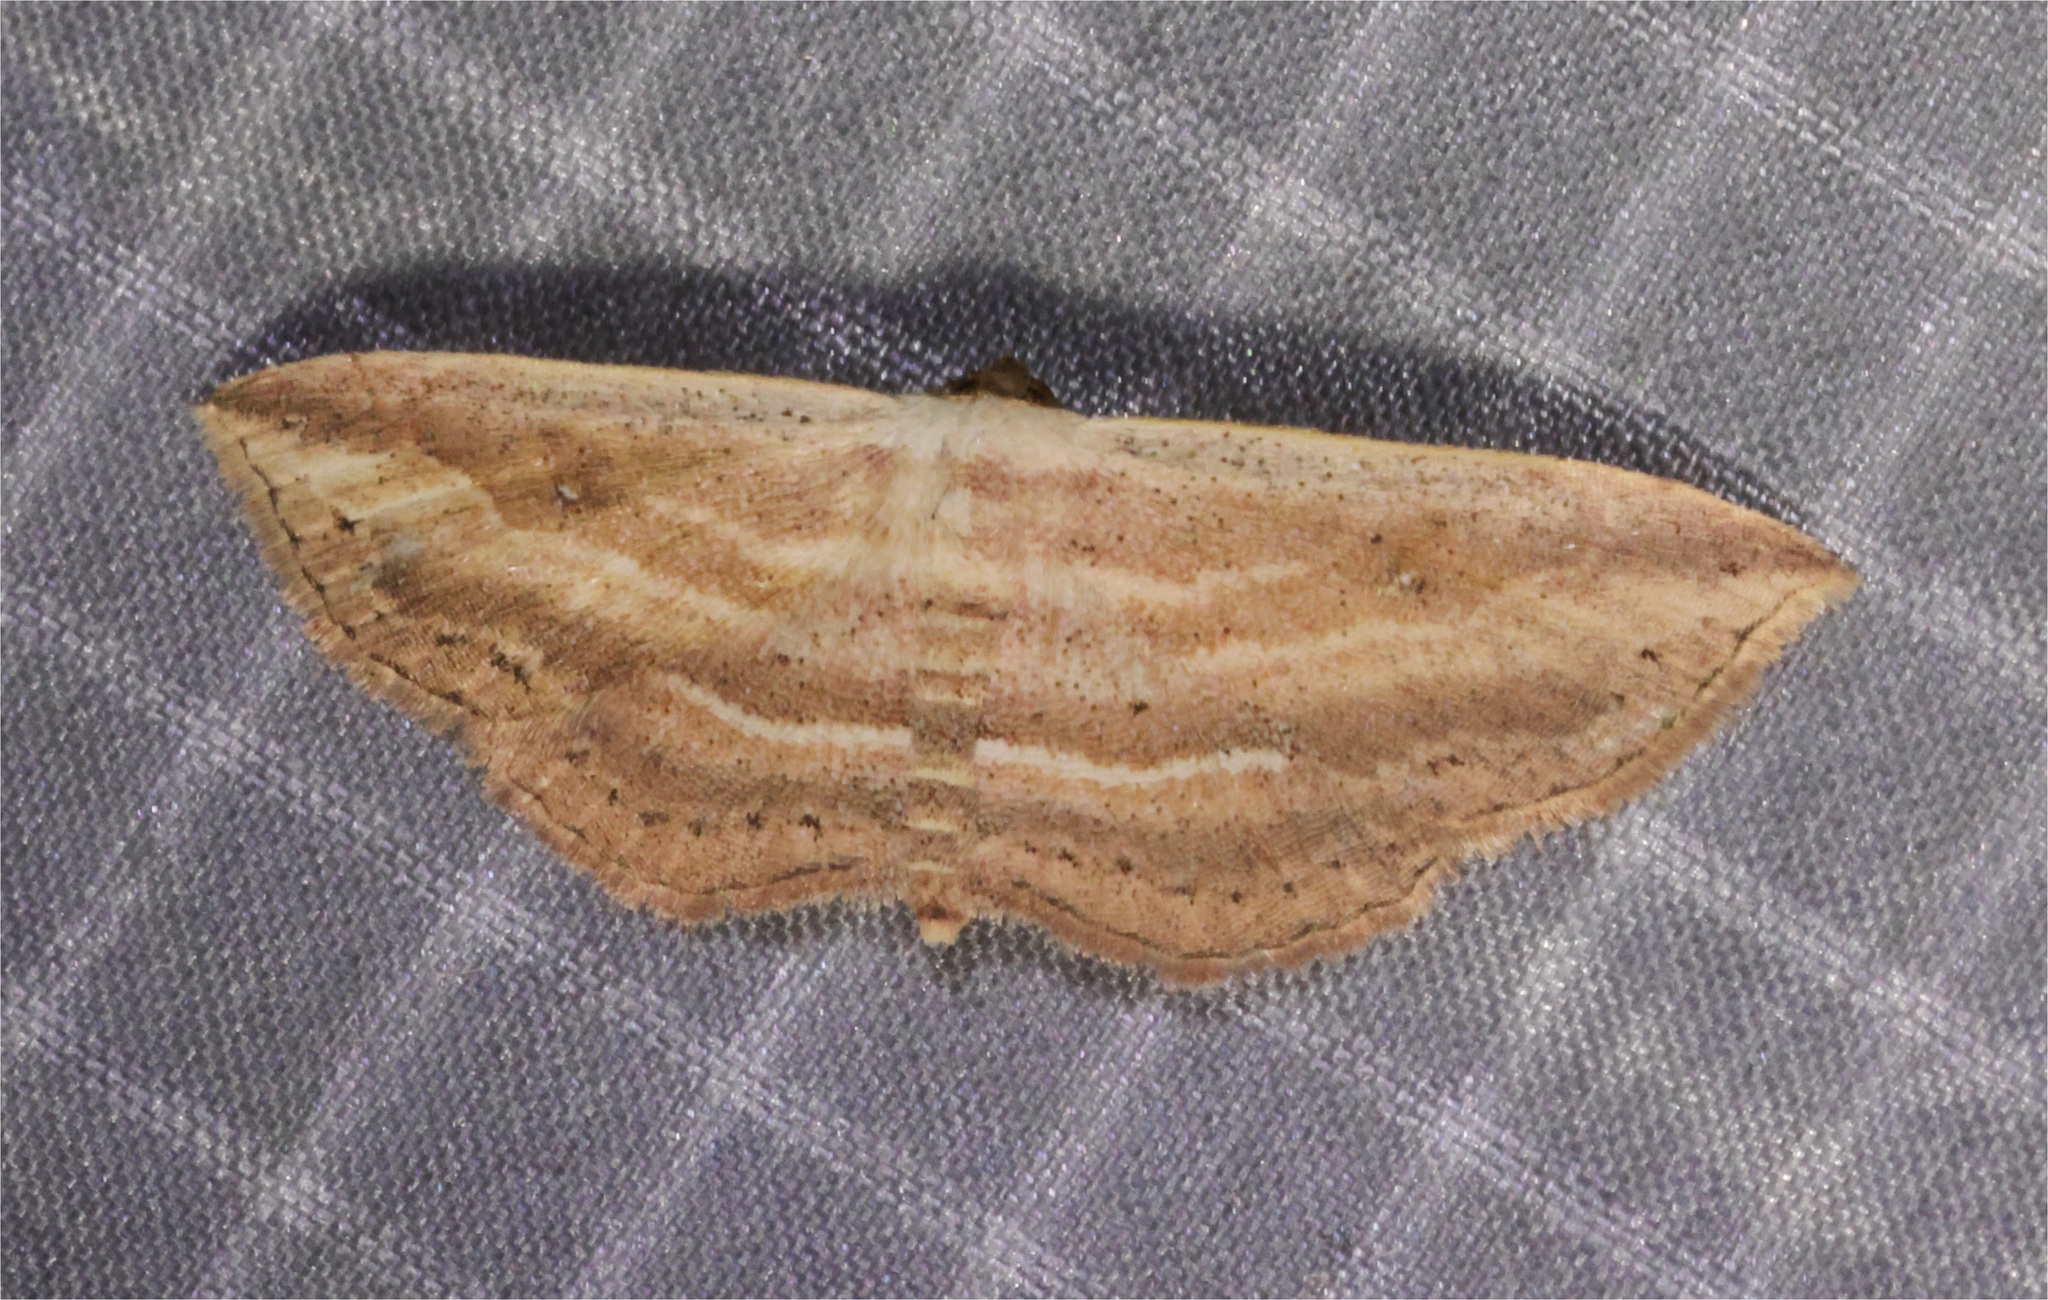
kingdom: Animalia
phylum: Arthropoda
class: Insecta
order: Lepidoptera
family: Noctuidae
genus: Hyposada
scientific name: Hyposada kadooriensis
